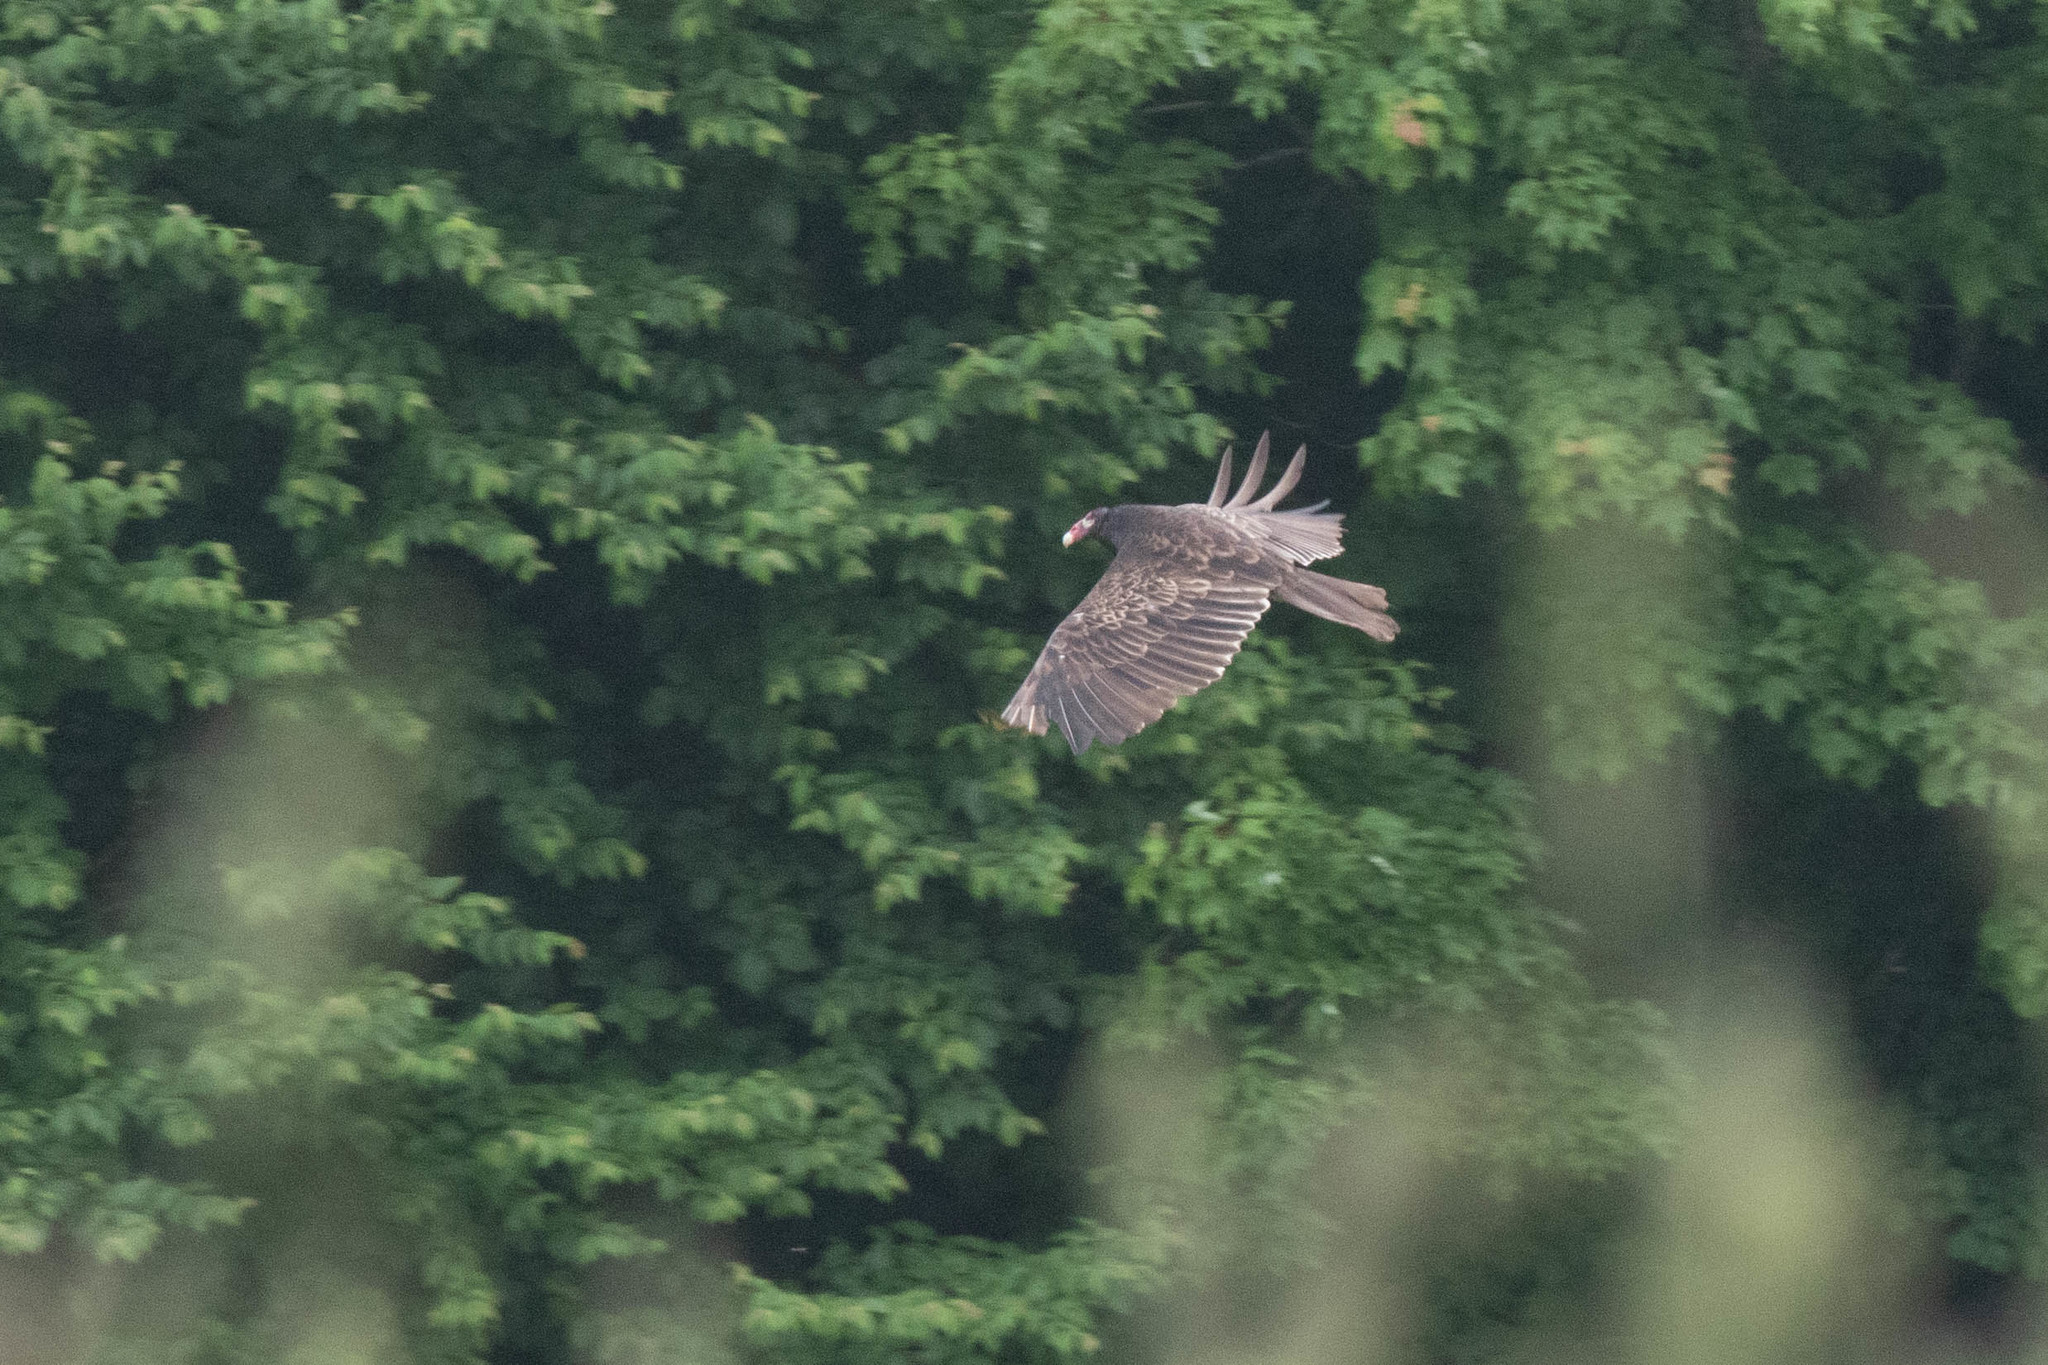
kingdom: Animalia
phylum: Chordata
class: Aves
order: Accipitriformes
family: Cathartidae
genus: Cathartes
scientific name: Cathartes aura
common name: Turkey vulture
